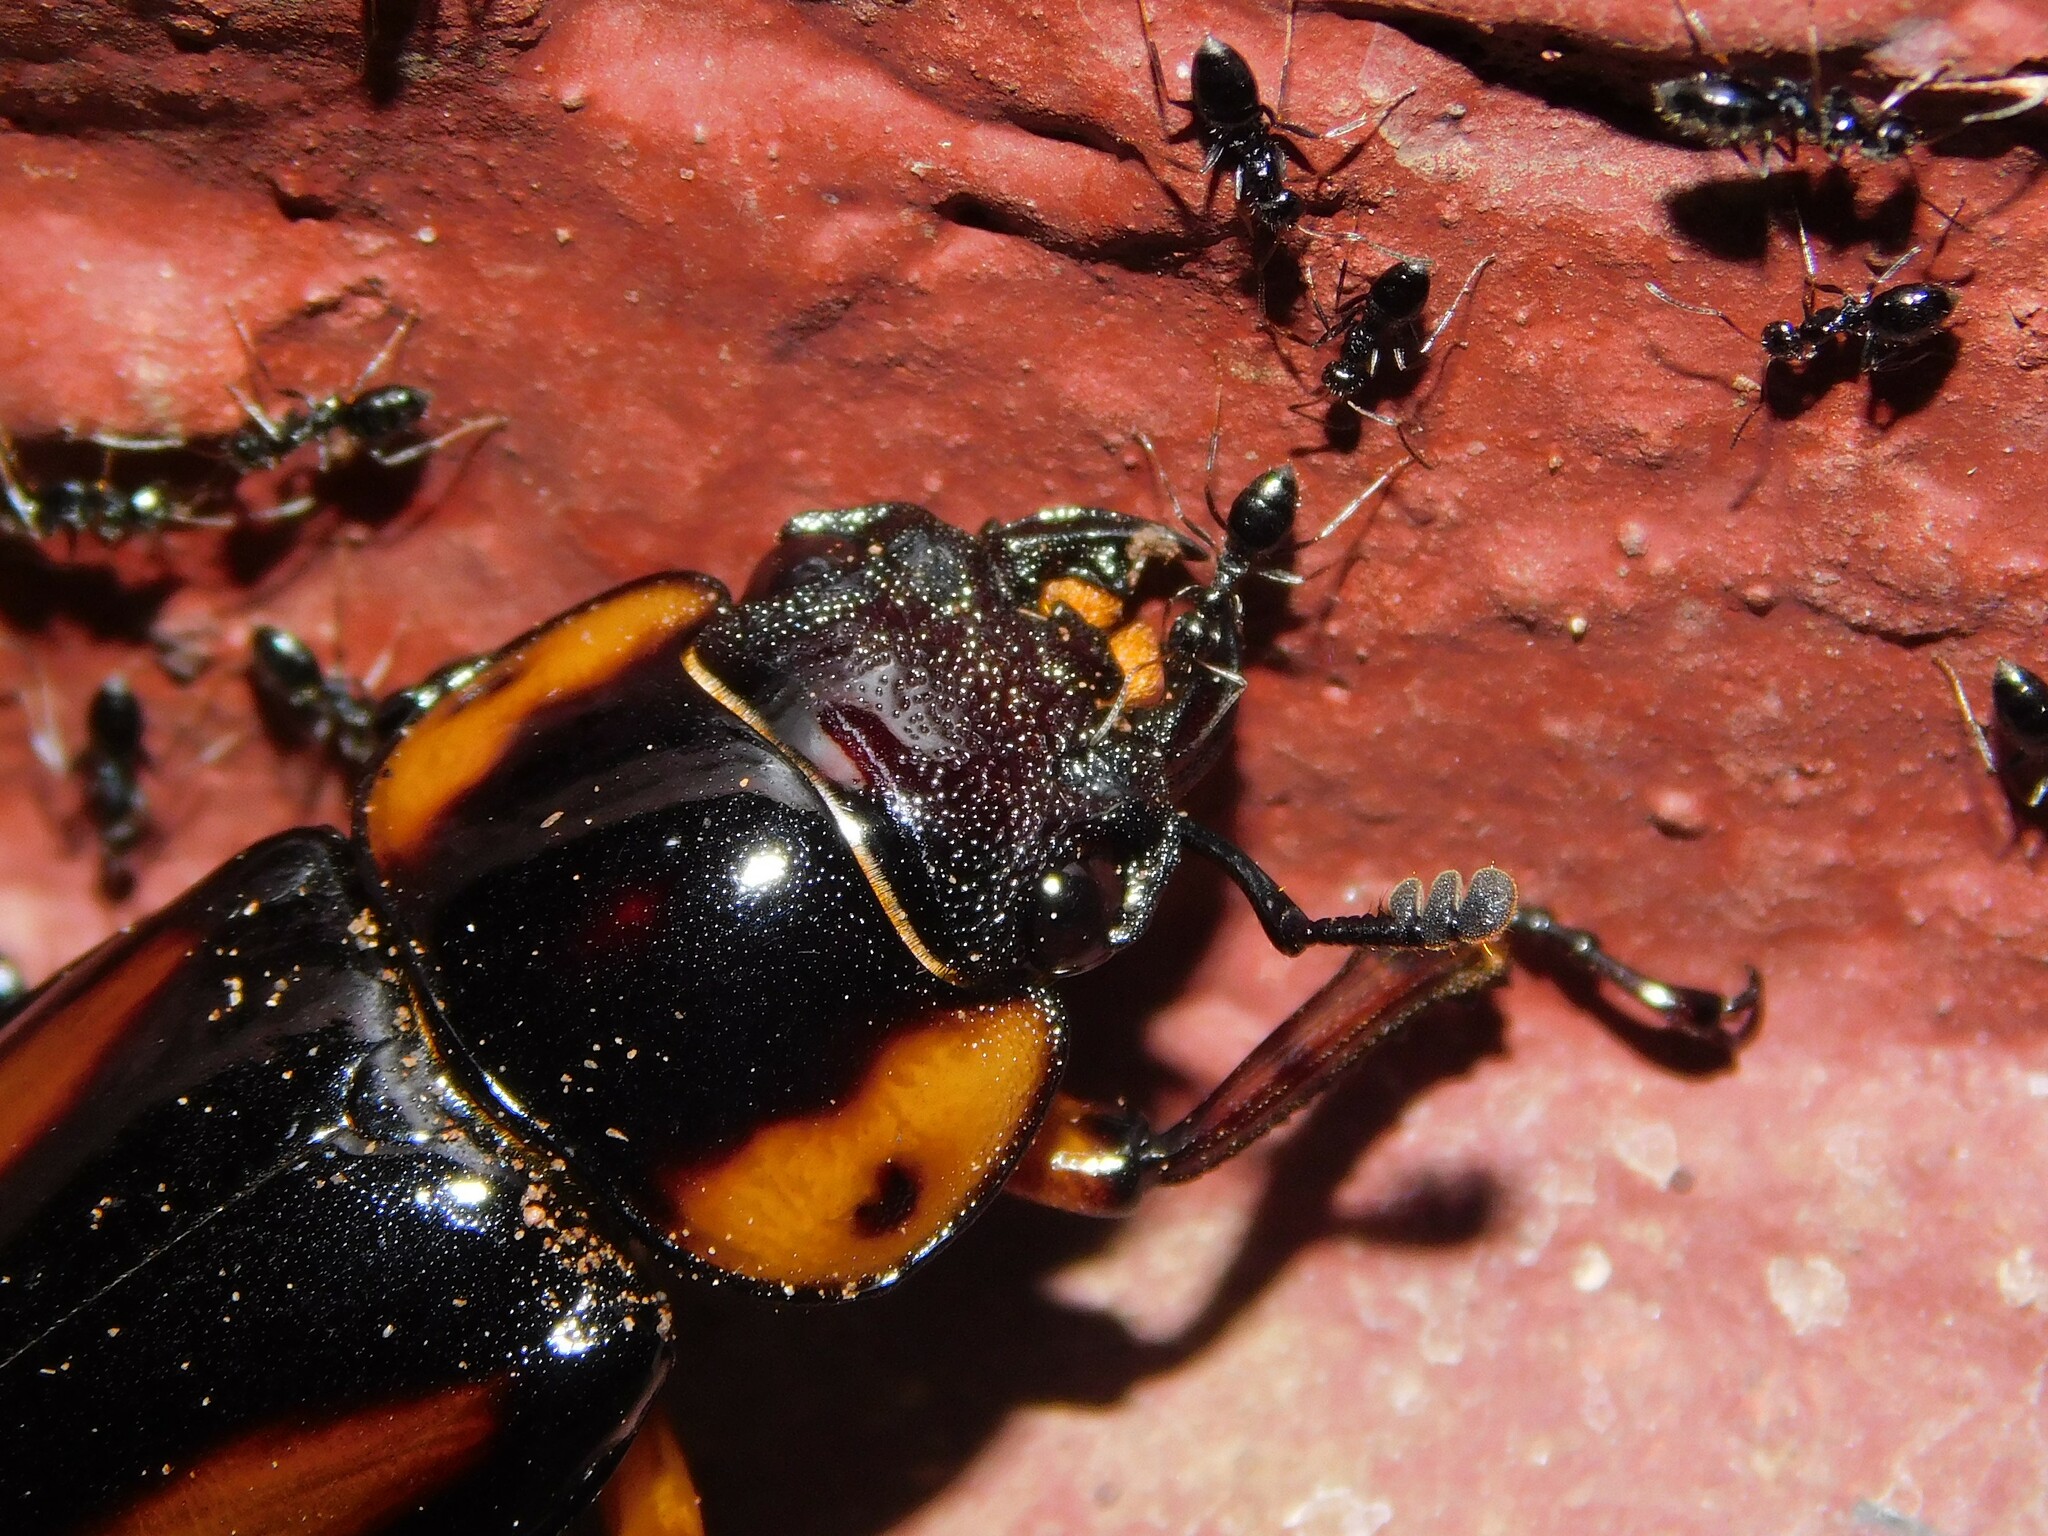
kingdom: Animalia
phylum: Arthropoda
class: Insecta
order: Coleoptera
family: Lucanidae
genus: Prosopocoilus
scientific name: Prosopocoilus
